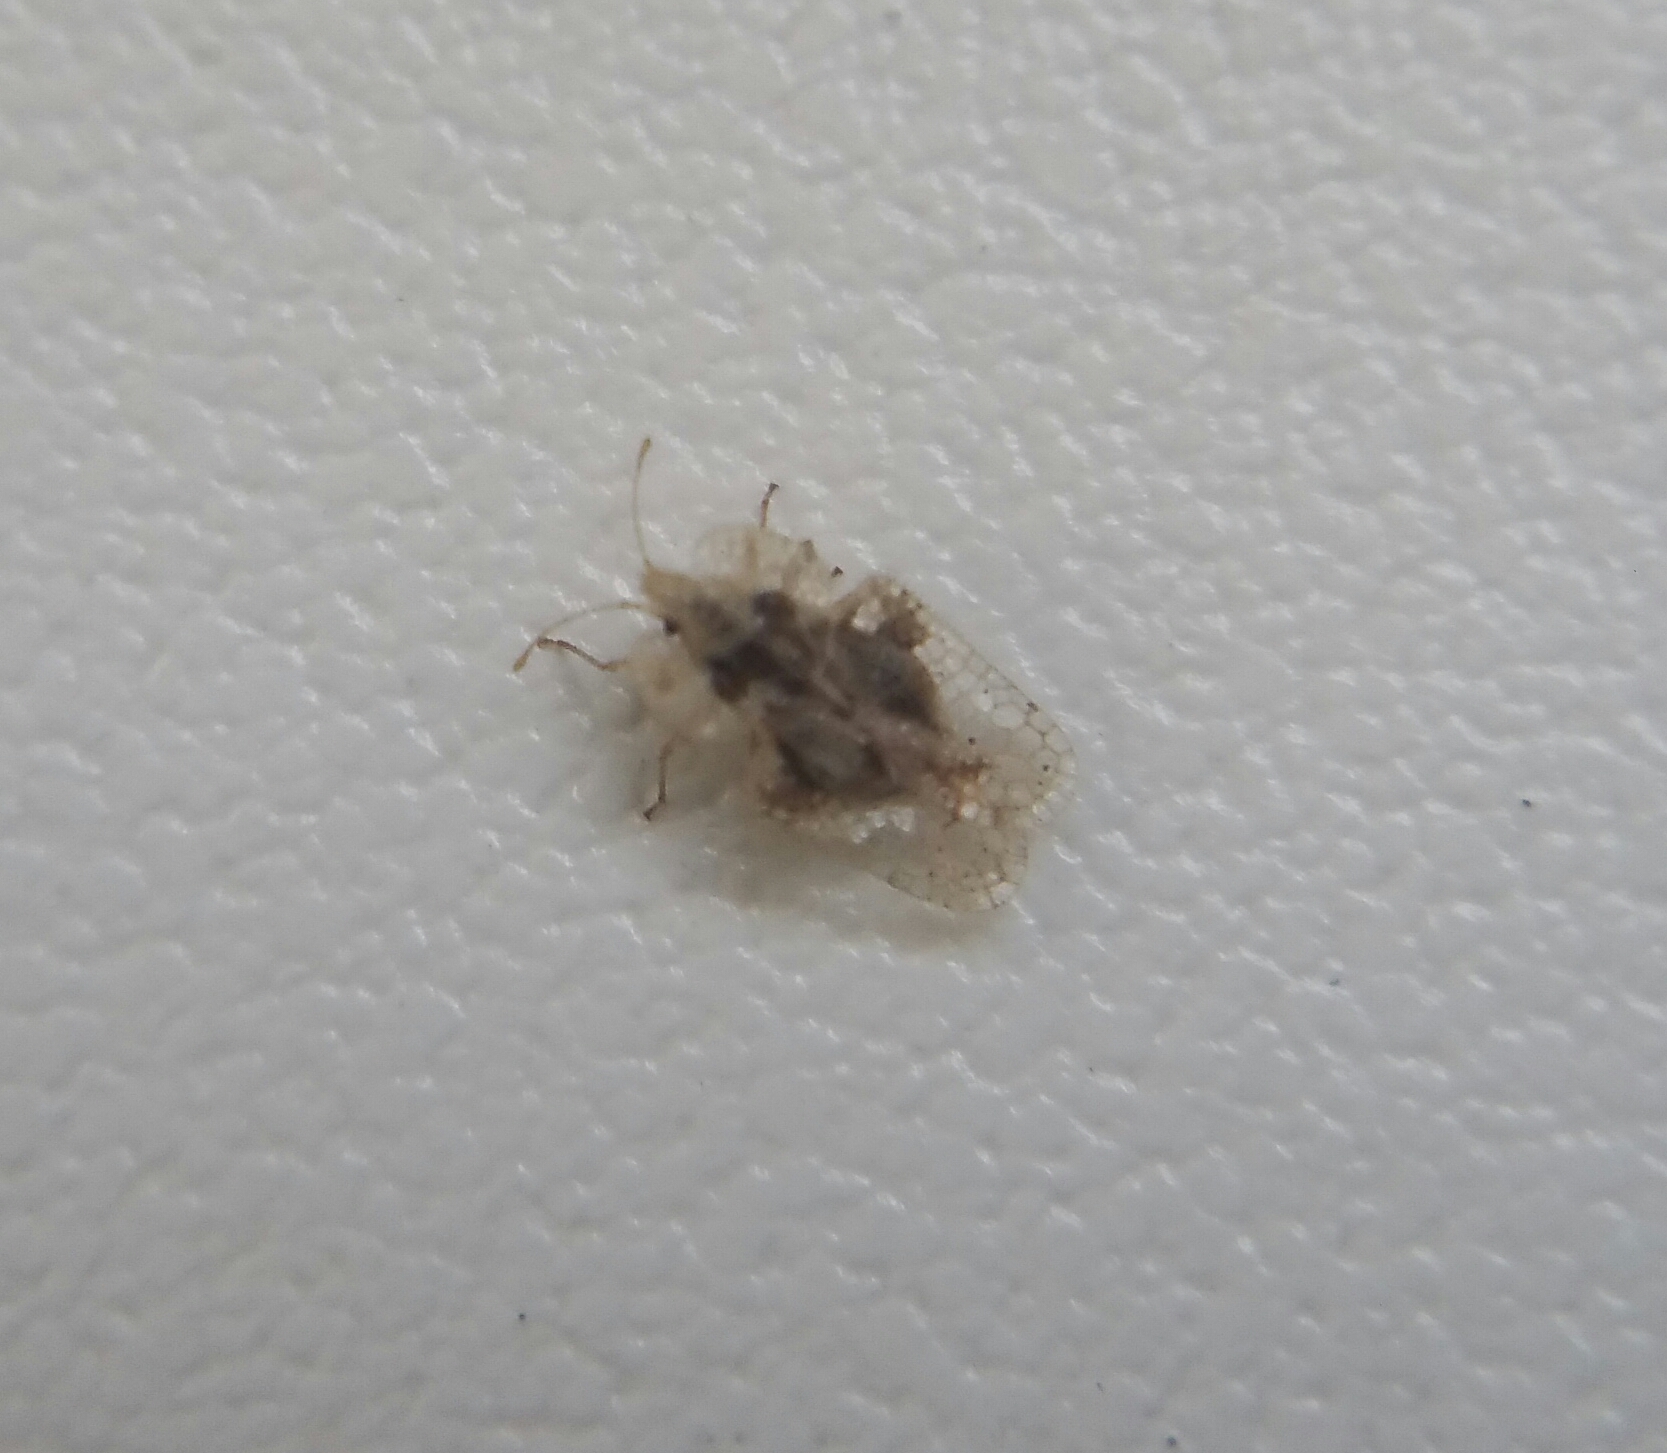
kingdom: Animalia
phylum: Arthropoda
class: Insecta
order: Hemiptera
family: Tingidae
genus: Corythucha
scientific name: Corythucha arcuata
